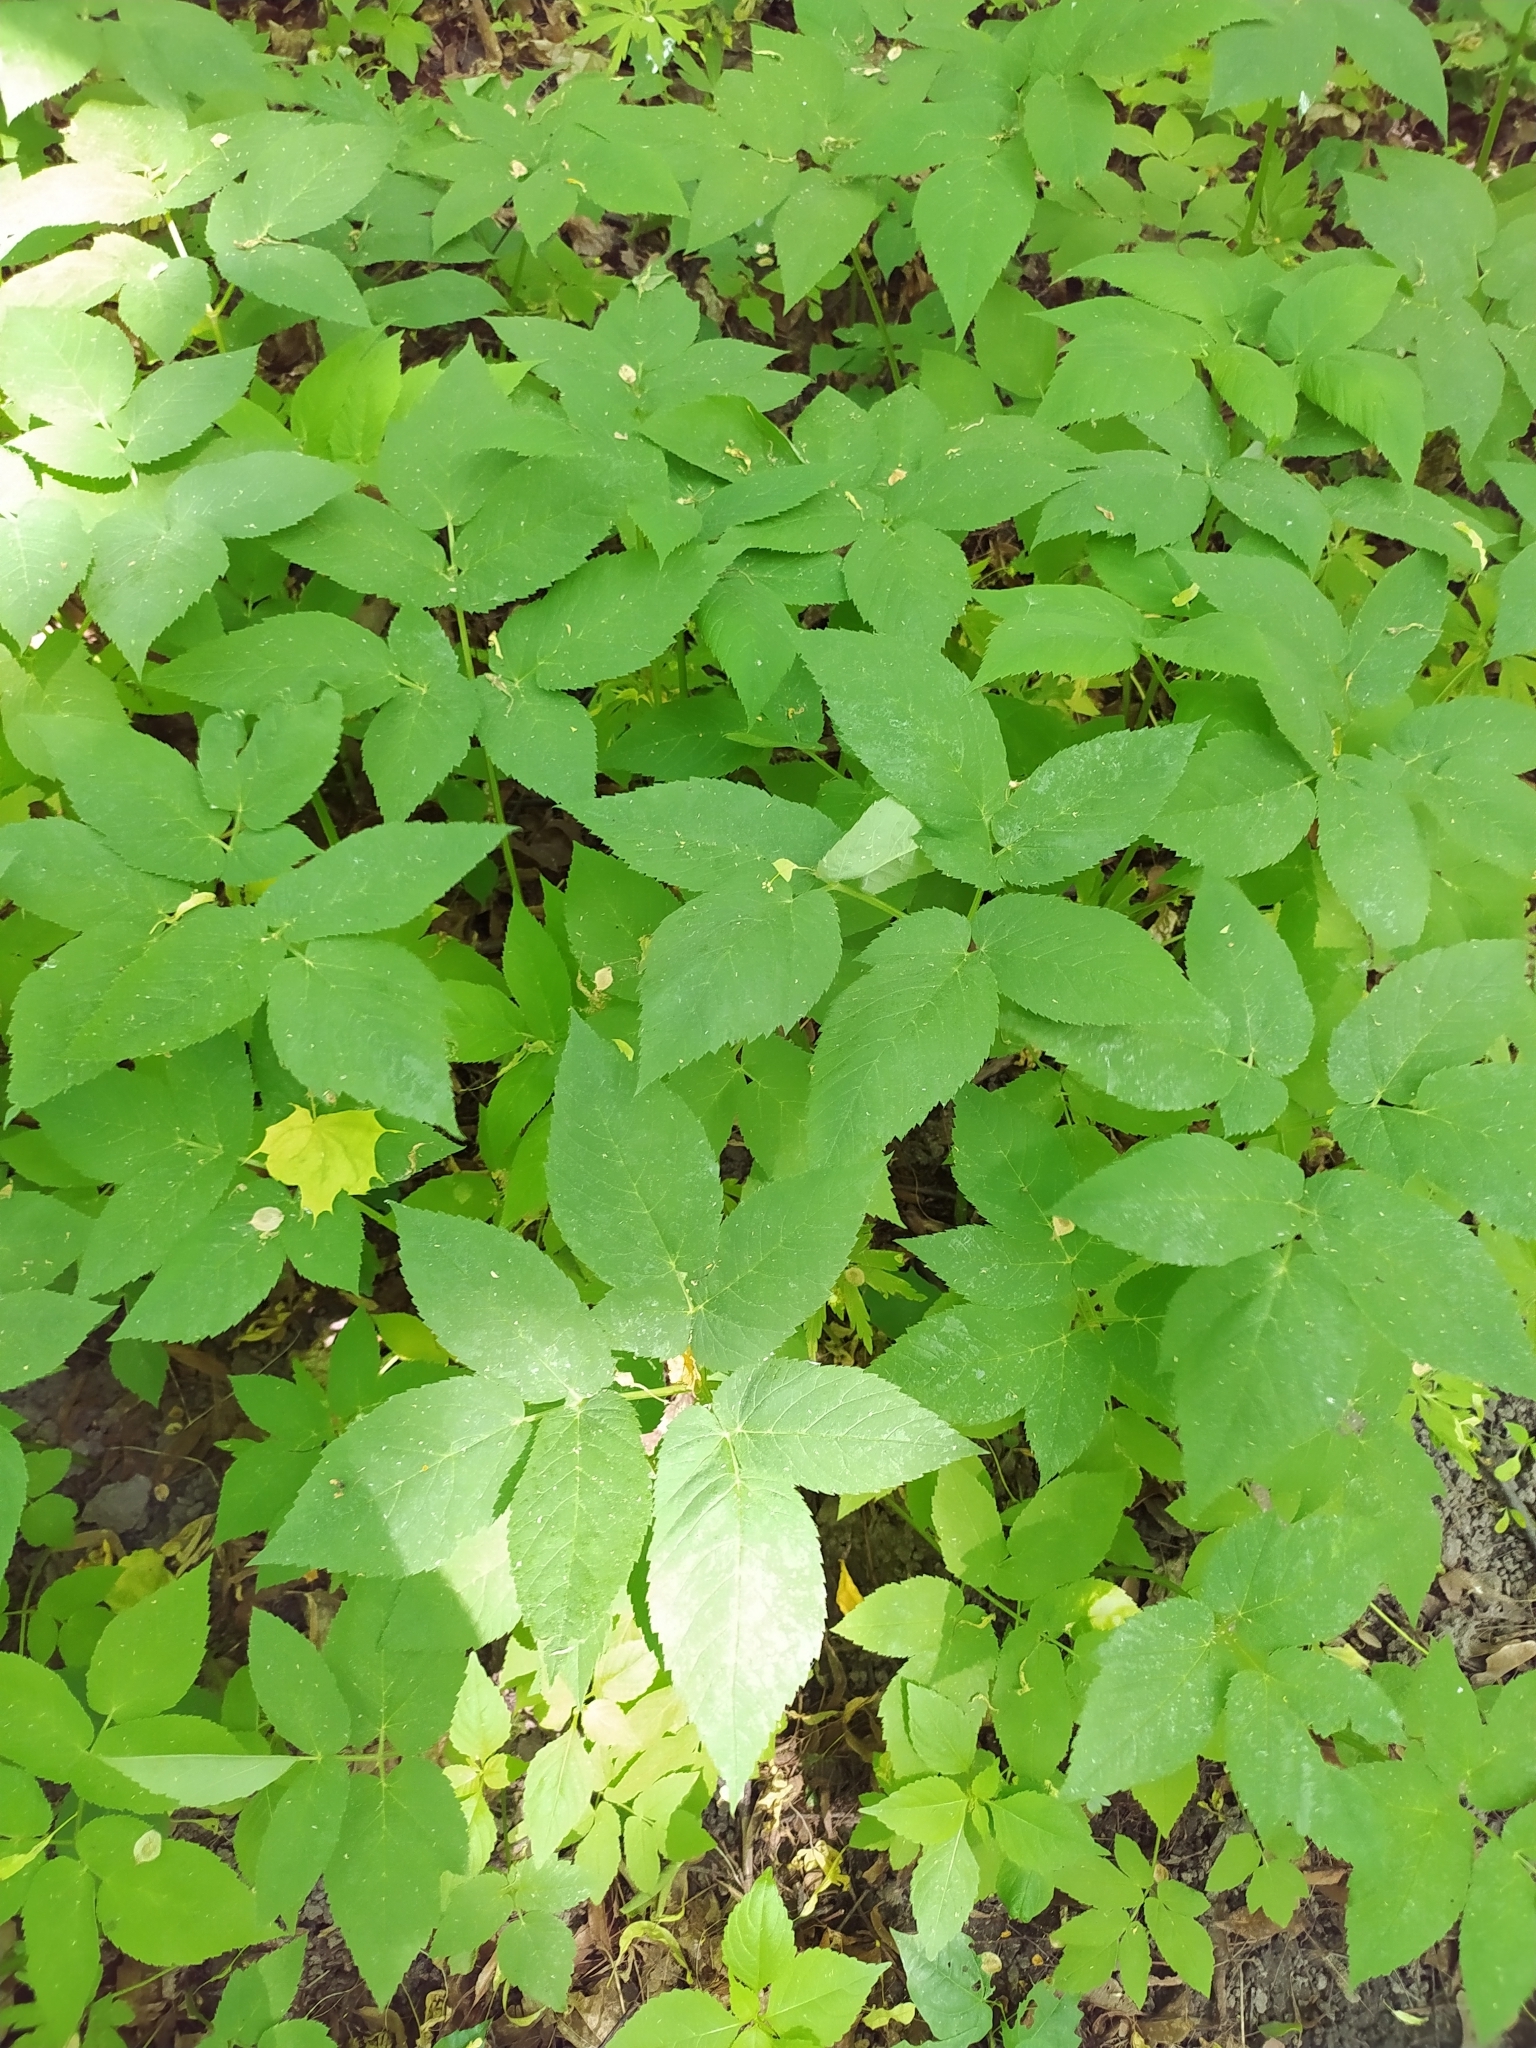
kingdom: Plantae
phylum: Tracheophyta
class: Magnoliopsida
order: Apiales
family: Apiaceae
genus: Aegopodium
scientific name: Aegopodium podagraria
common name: Ground-elder
